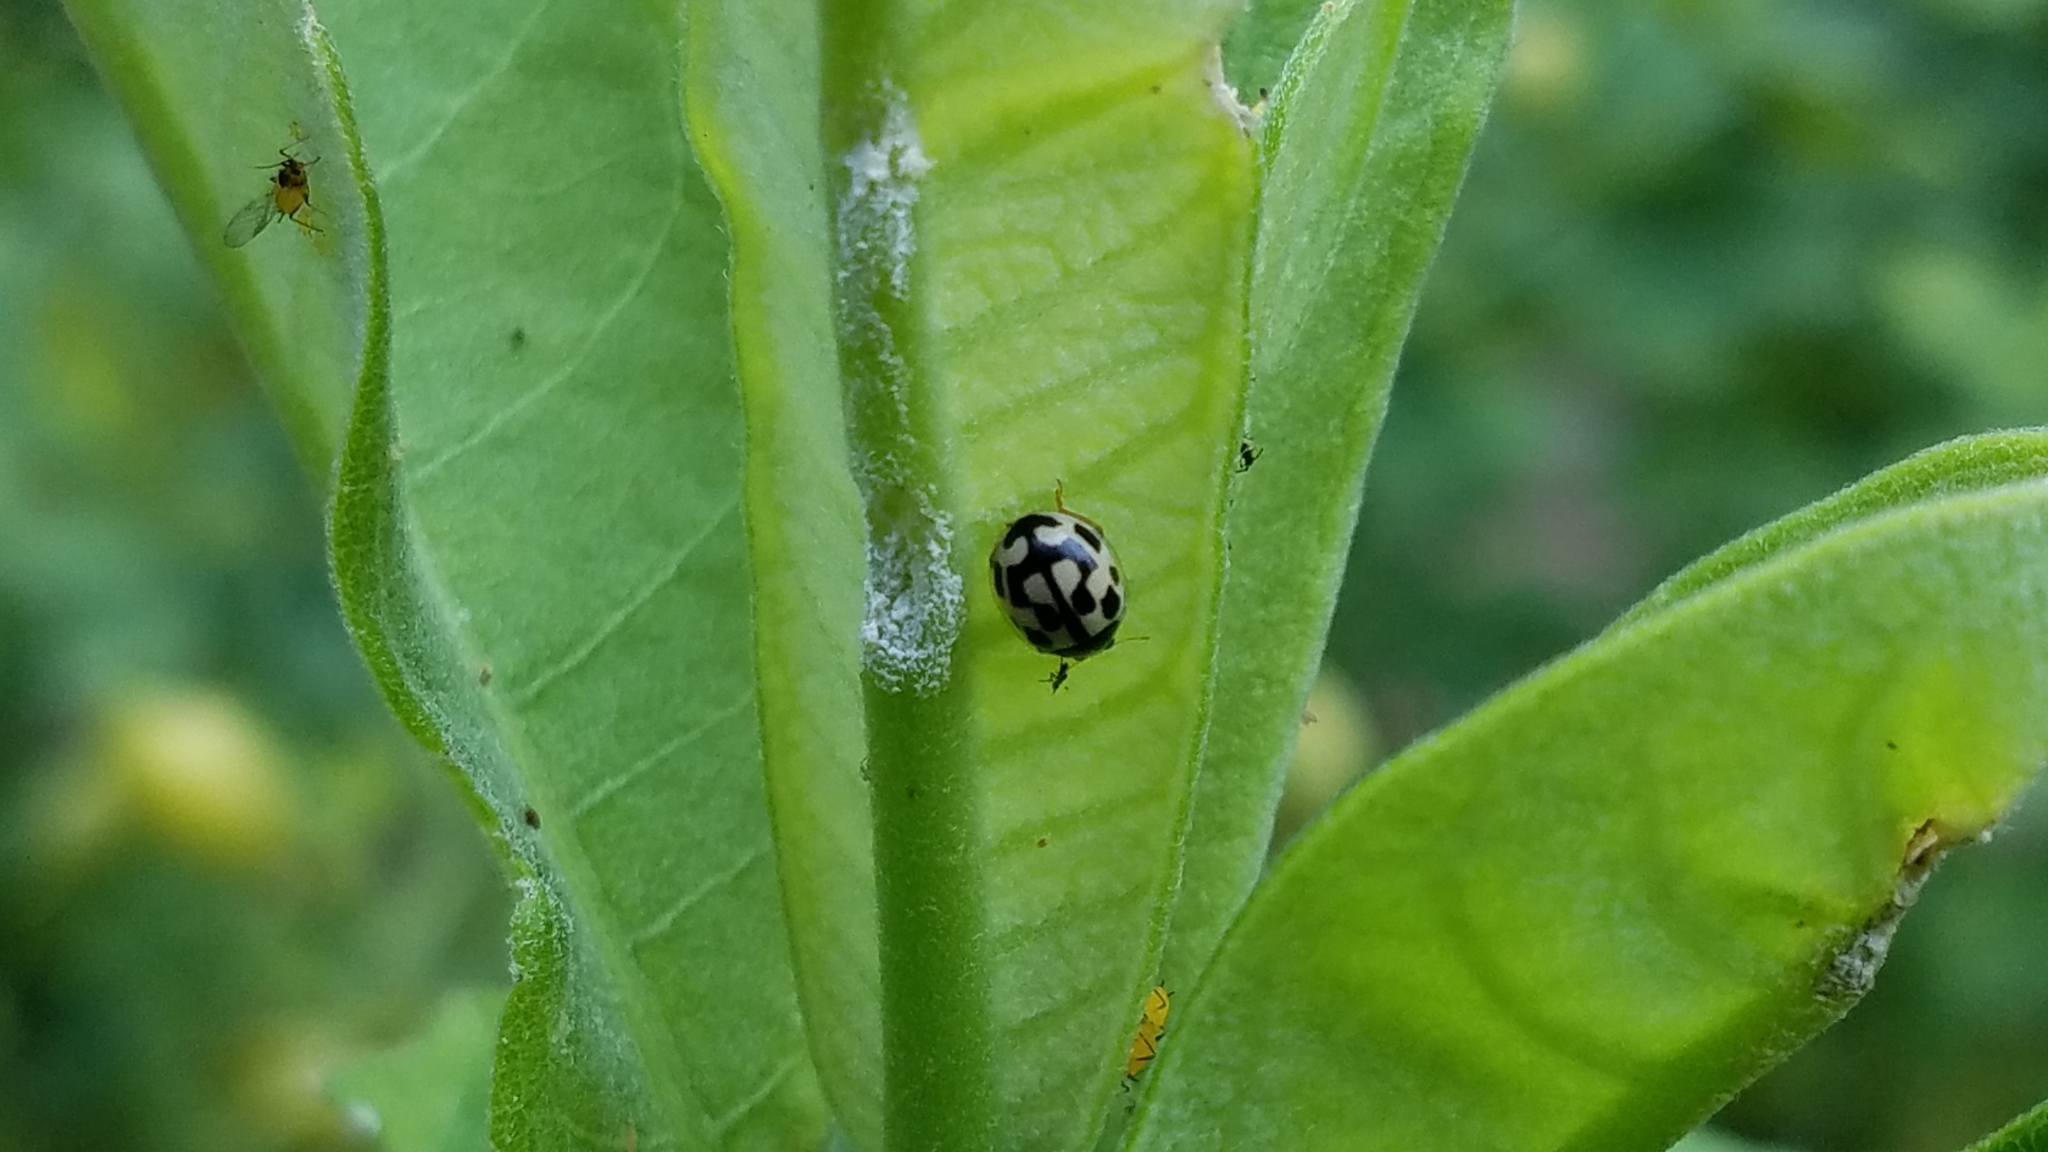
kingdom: Animalia
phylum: Arthropoda
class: Insecta
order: Coleoptera
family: Coccinellidae
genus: Propylaea
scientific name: Propylaea quatuordecimpunctata
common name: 14-spotted ladybird beetle
